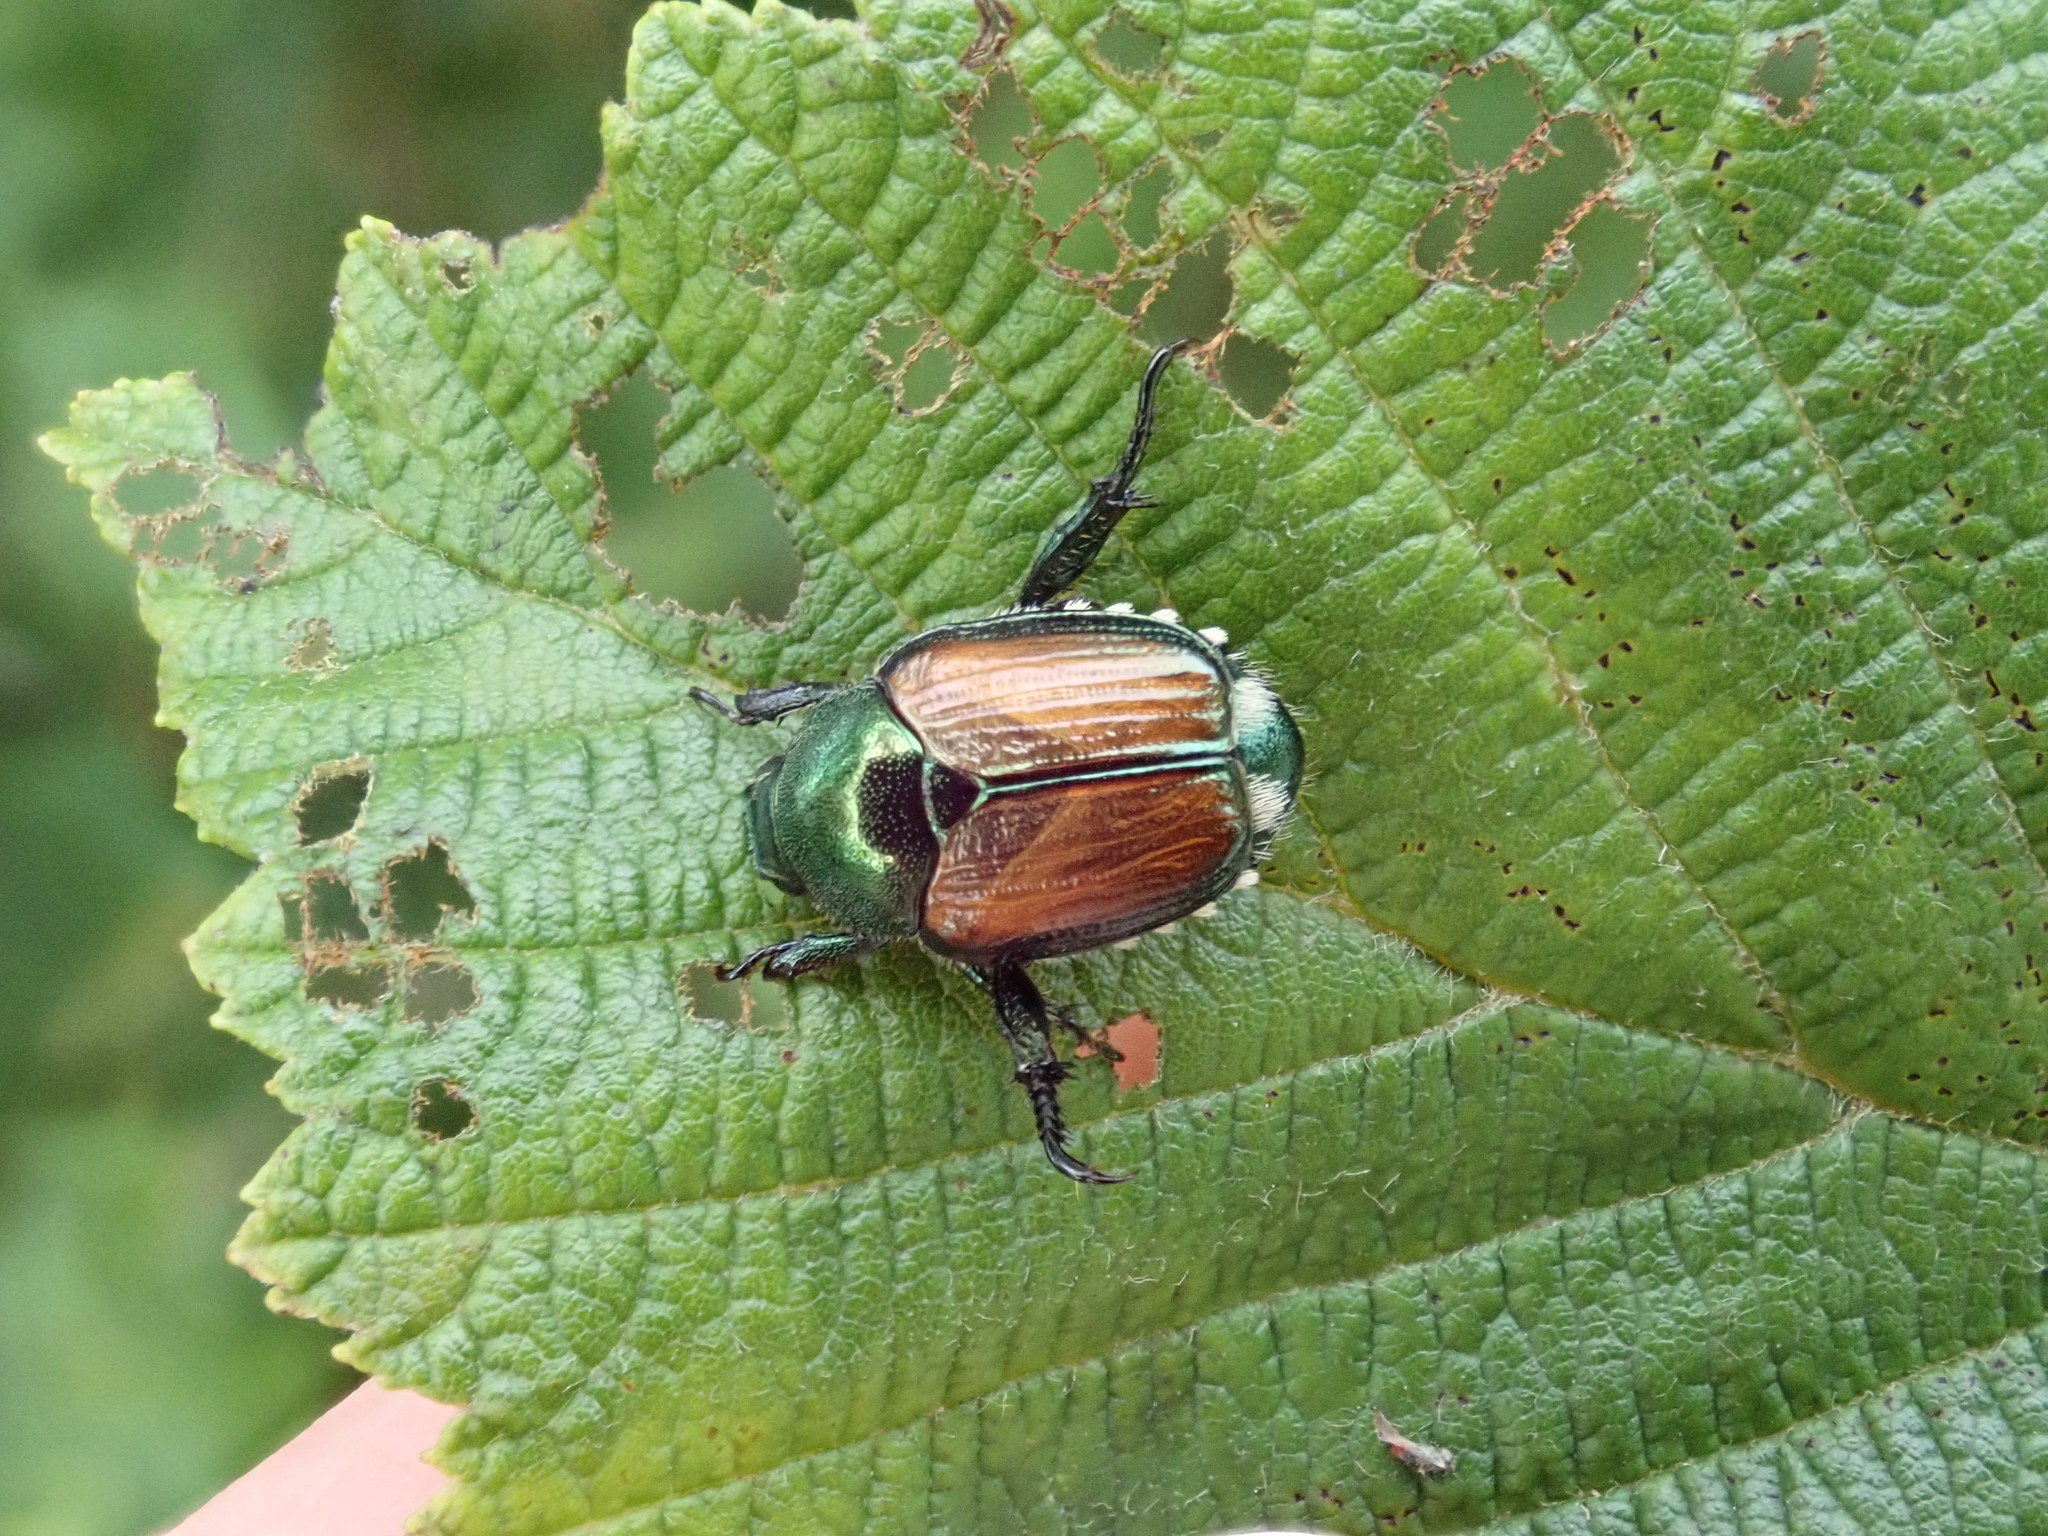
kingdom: Animalia
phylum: Arthropoda
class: Insecta
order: Coleoptera
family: Scarabaeidae
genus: Popillia
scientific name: Popillia japonica
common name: Japanese beetle
